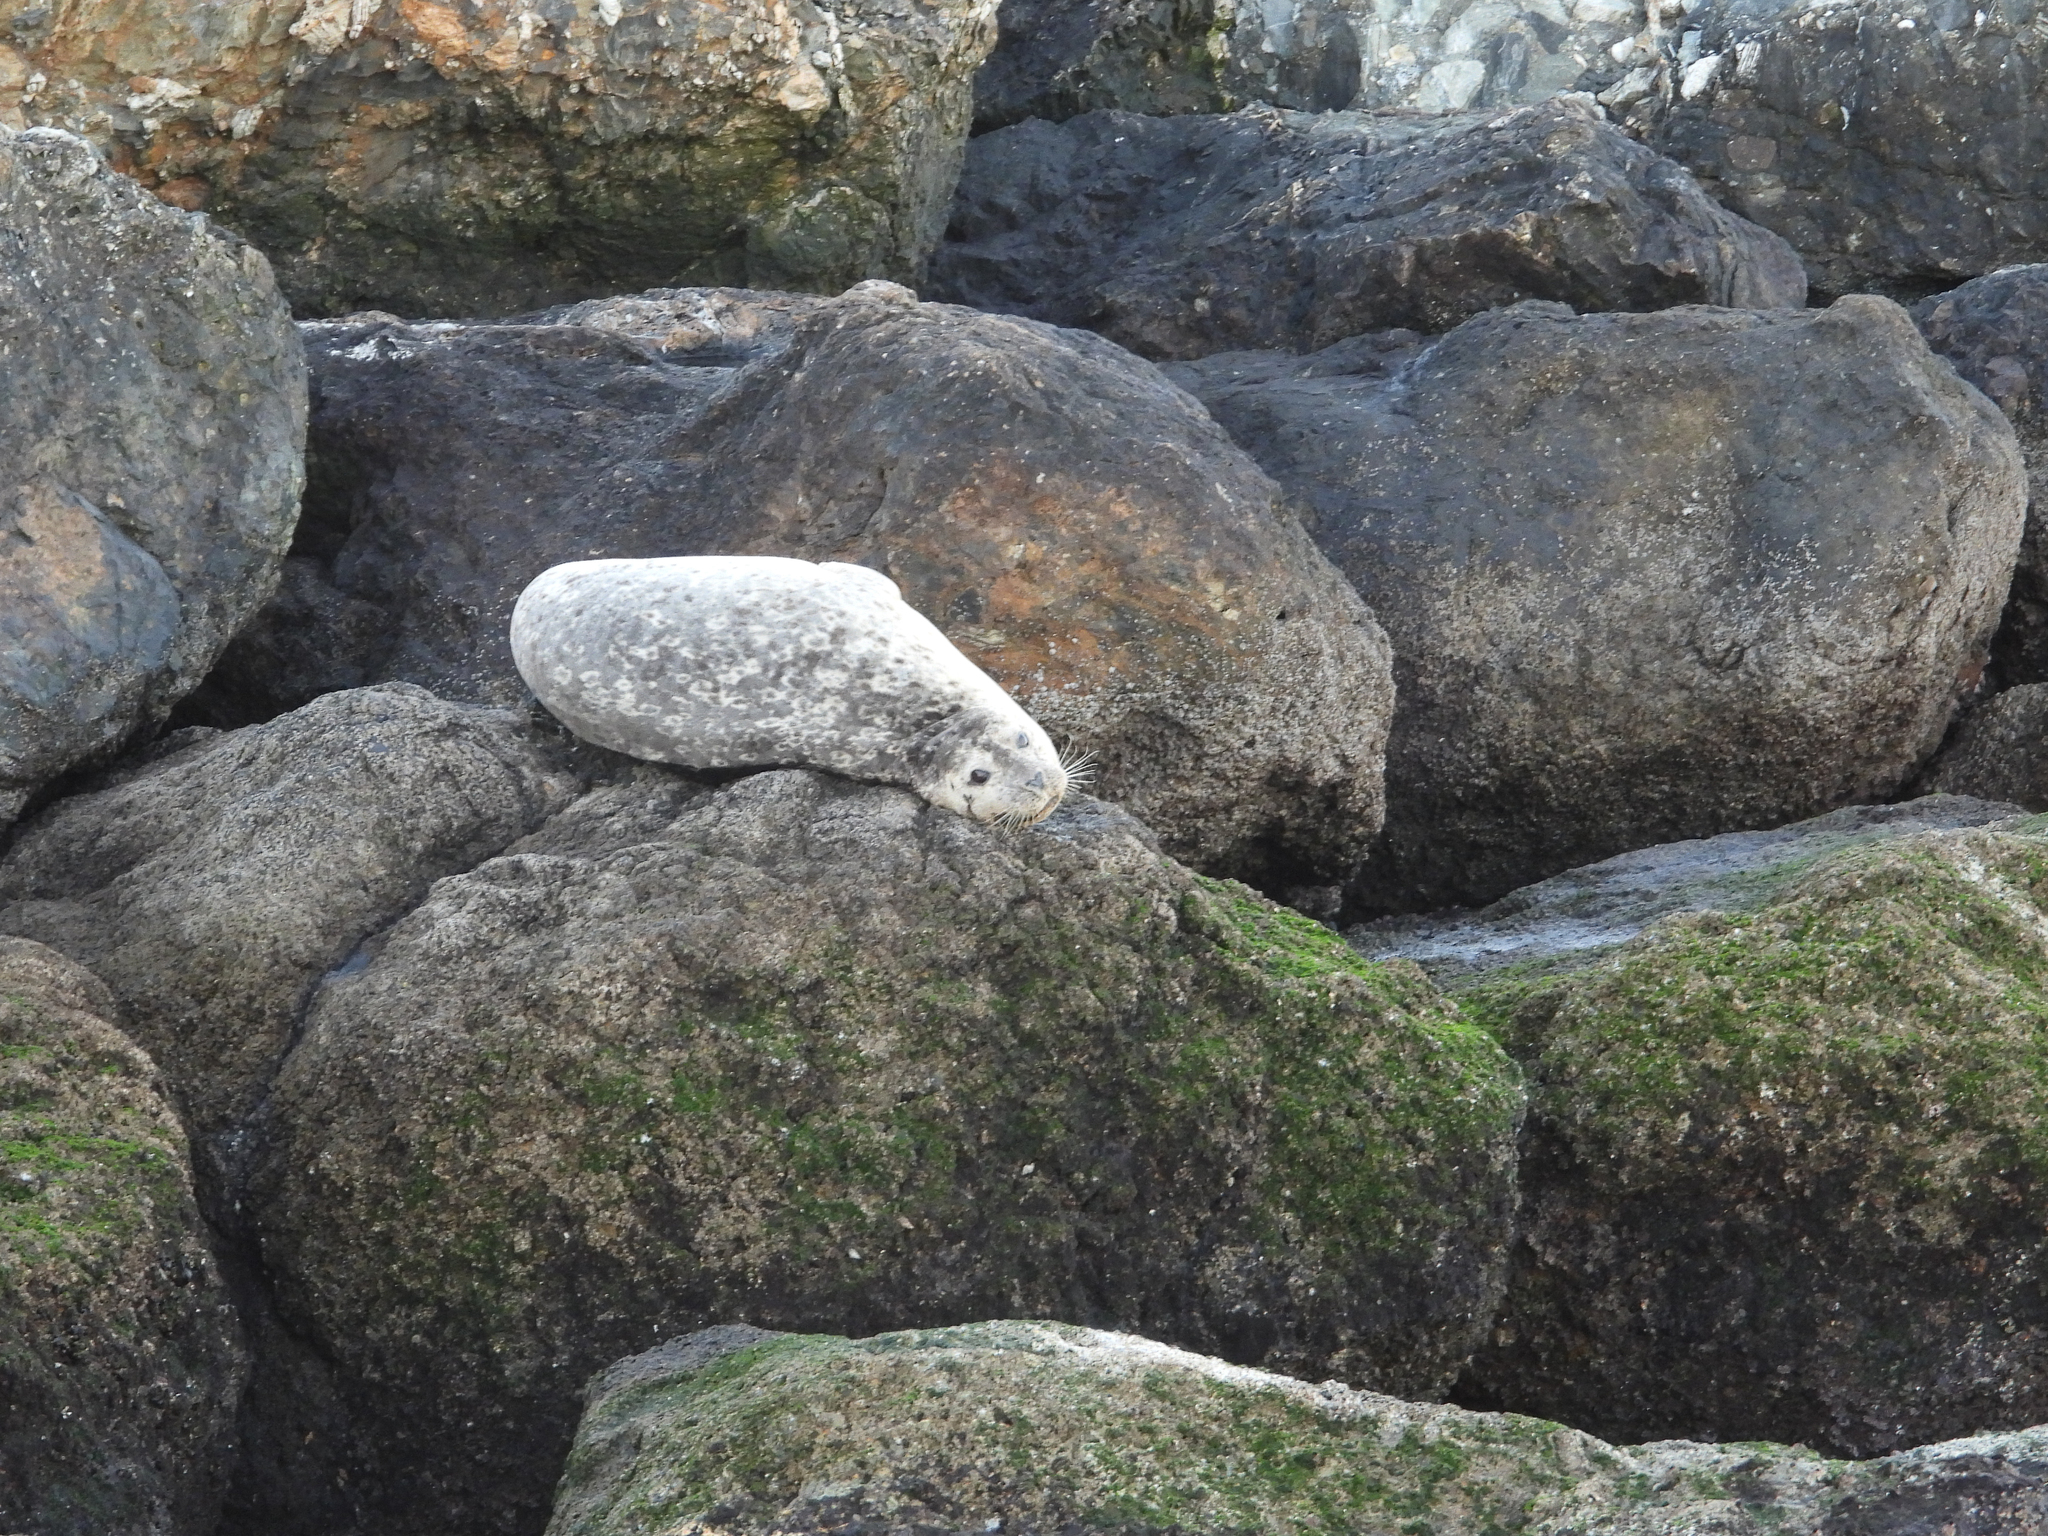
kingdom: Animalia
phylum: Chordata
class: Mammalia
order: Carnivora
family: Phocidae
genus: Phoca
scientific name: Phoca vitulina
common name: Harbor seal
